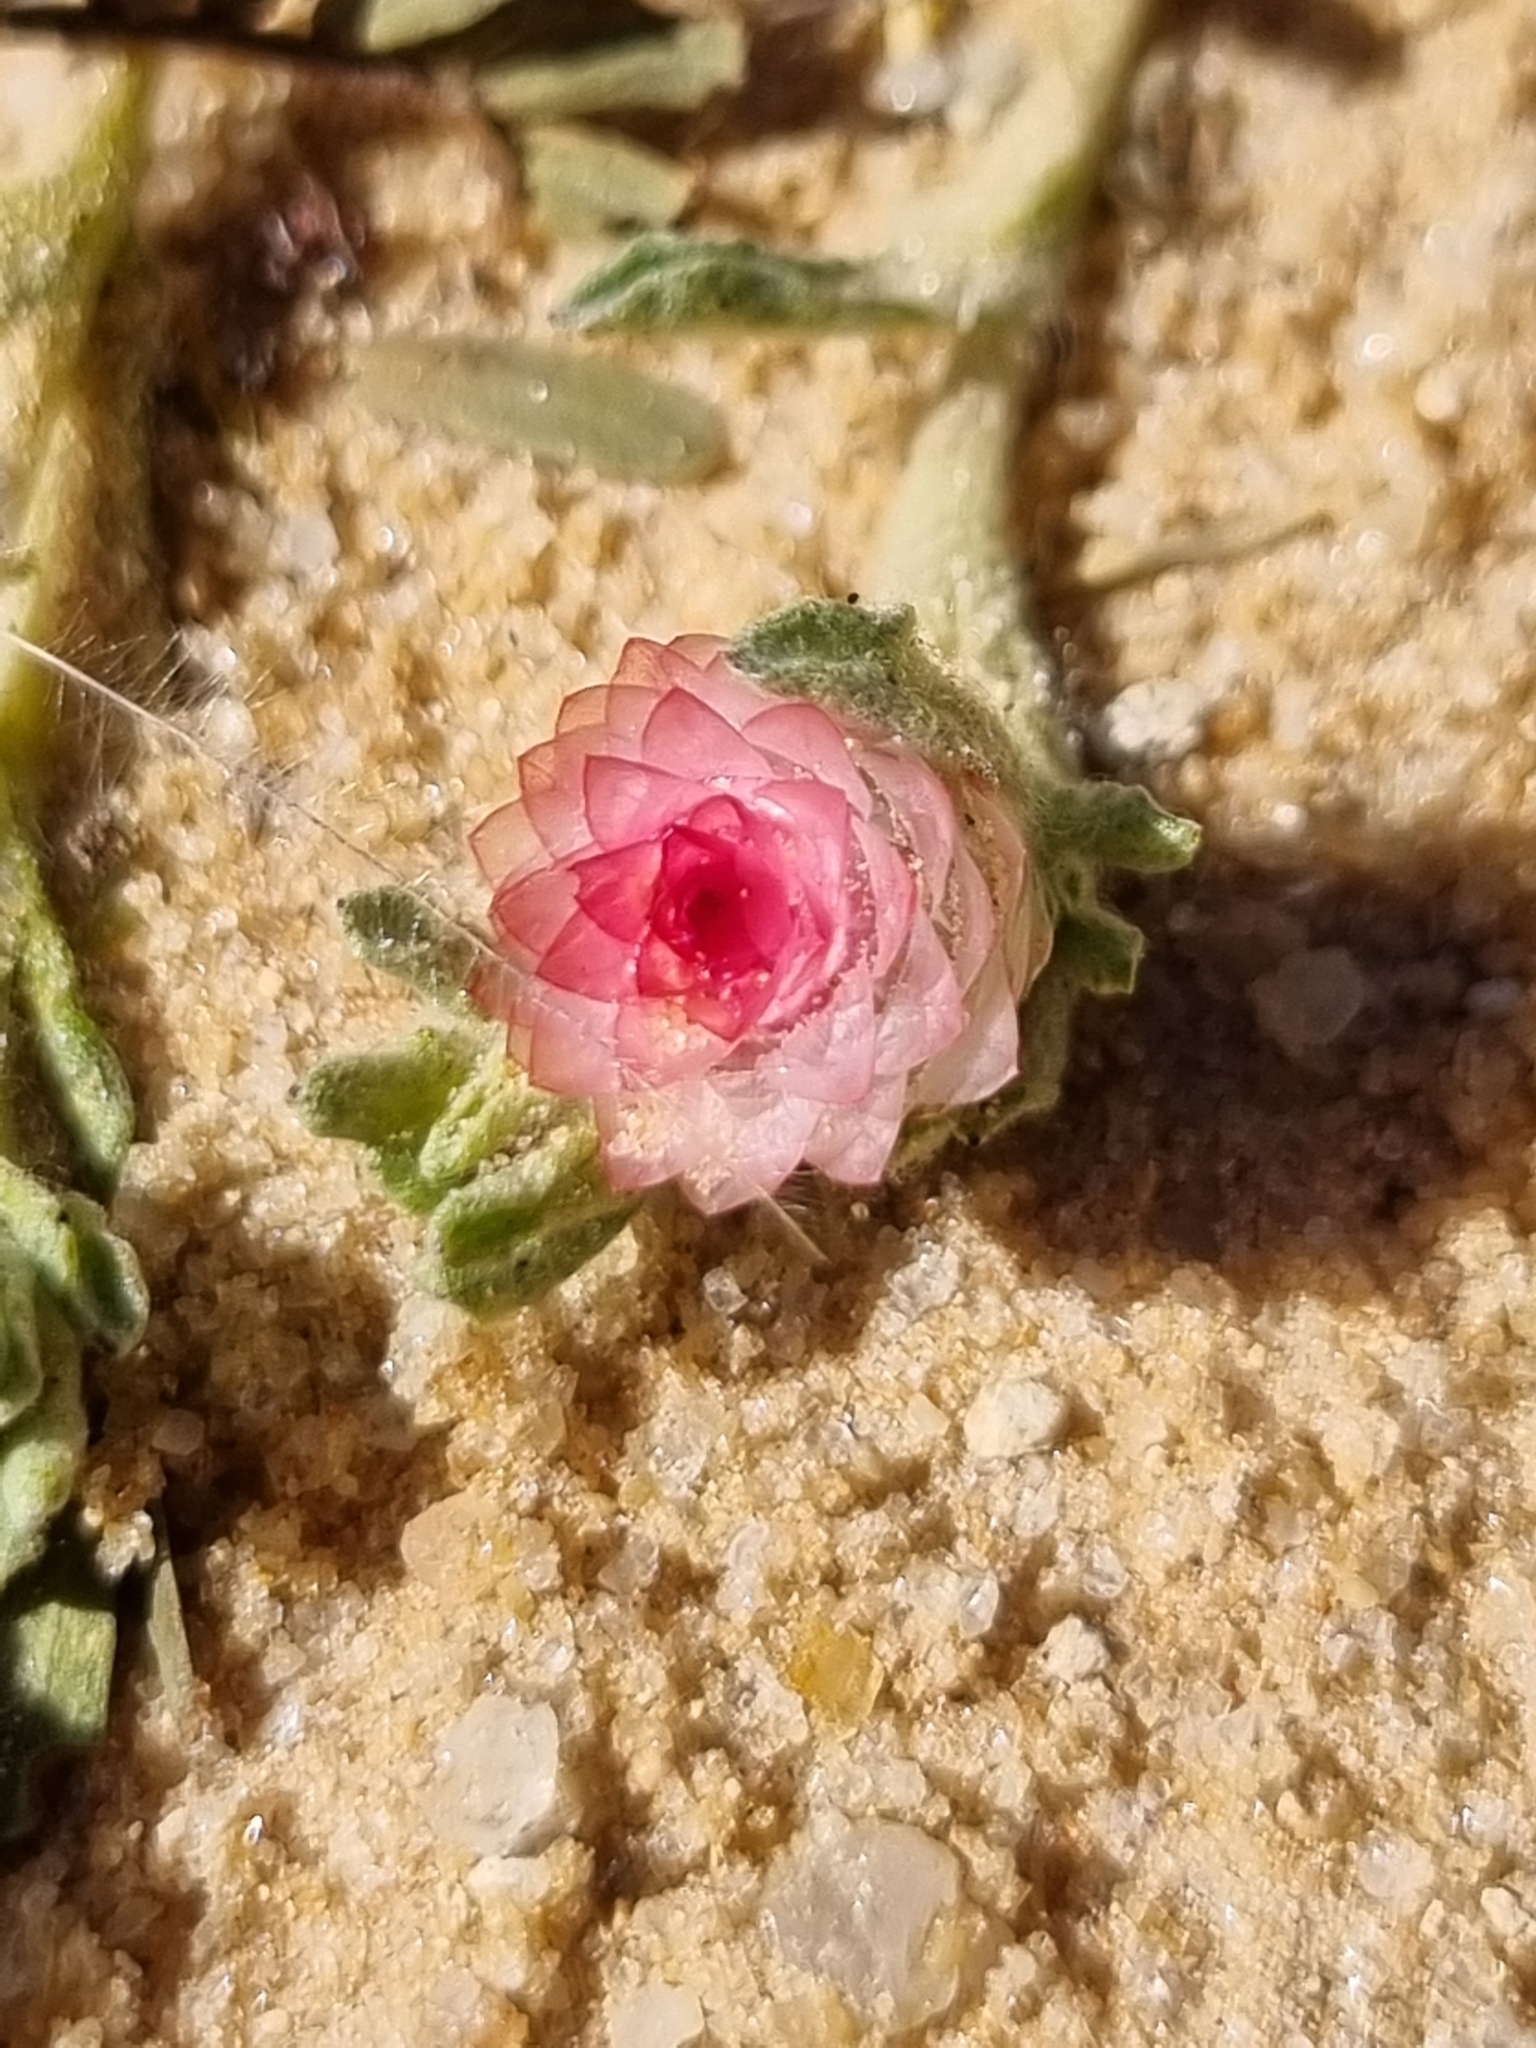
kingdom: Plantae
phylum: Tracheophyta
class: Magnoliopsida
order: Asterales
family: Asteraceae
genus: Helichrysum
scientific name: Helichrysum argyrosphaerum
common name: Wild everlasting
